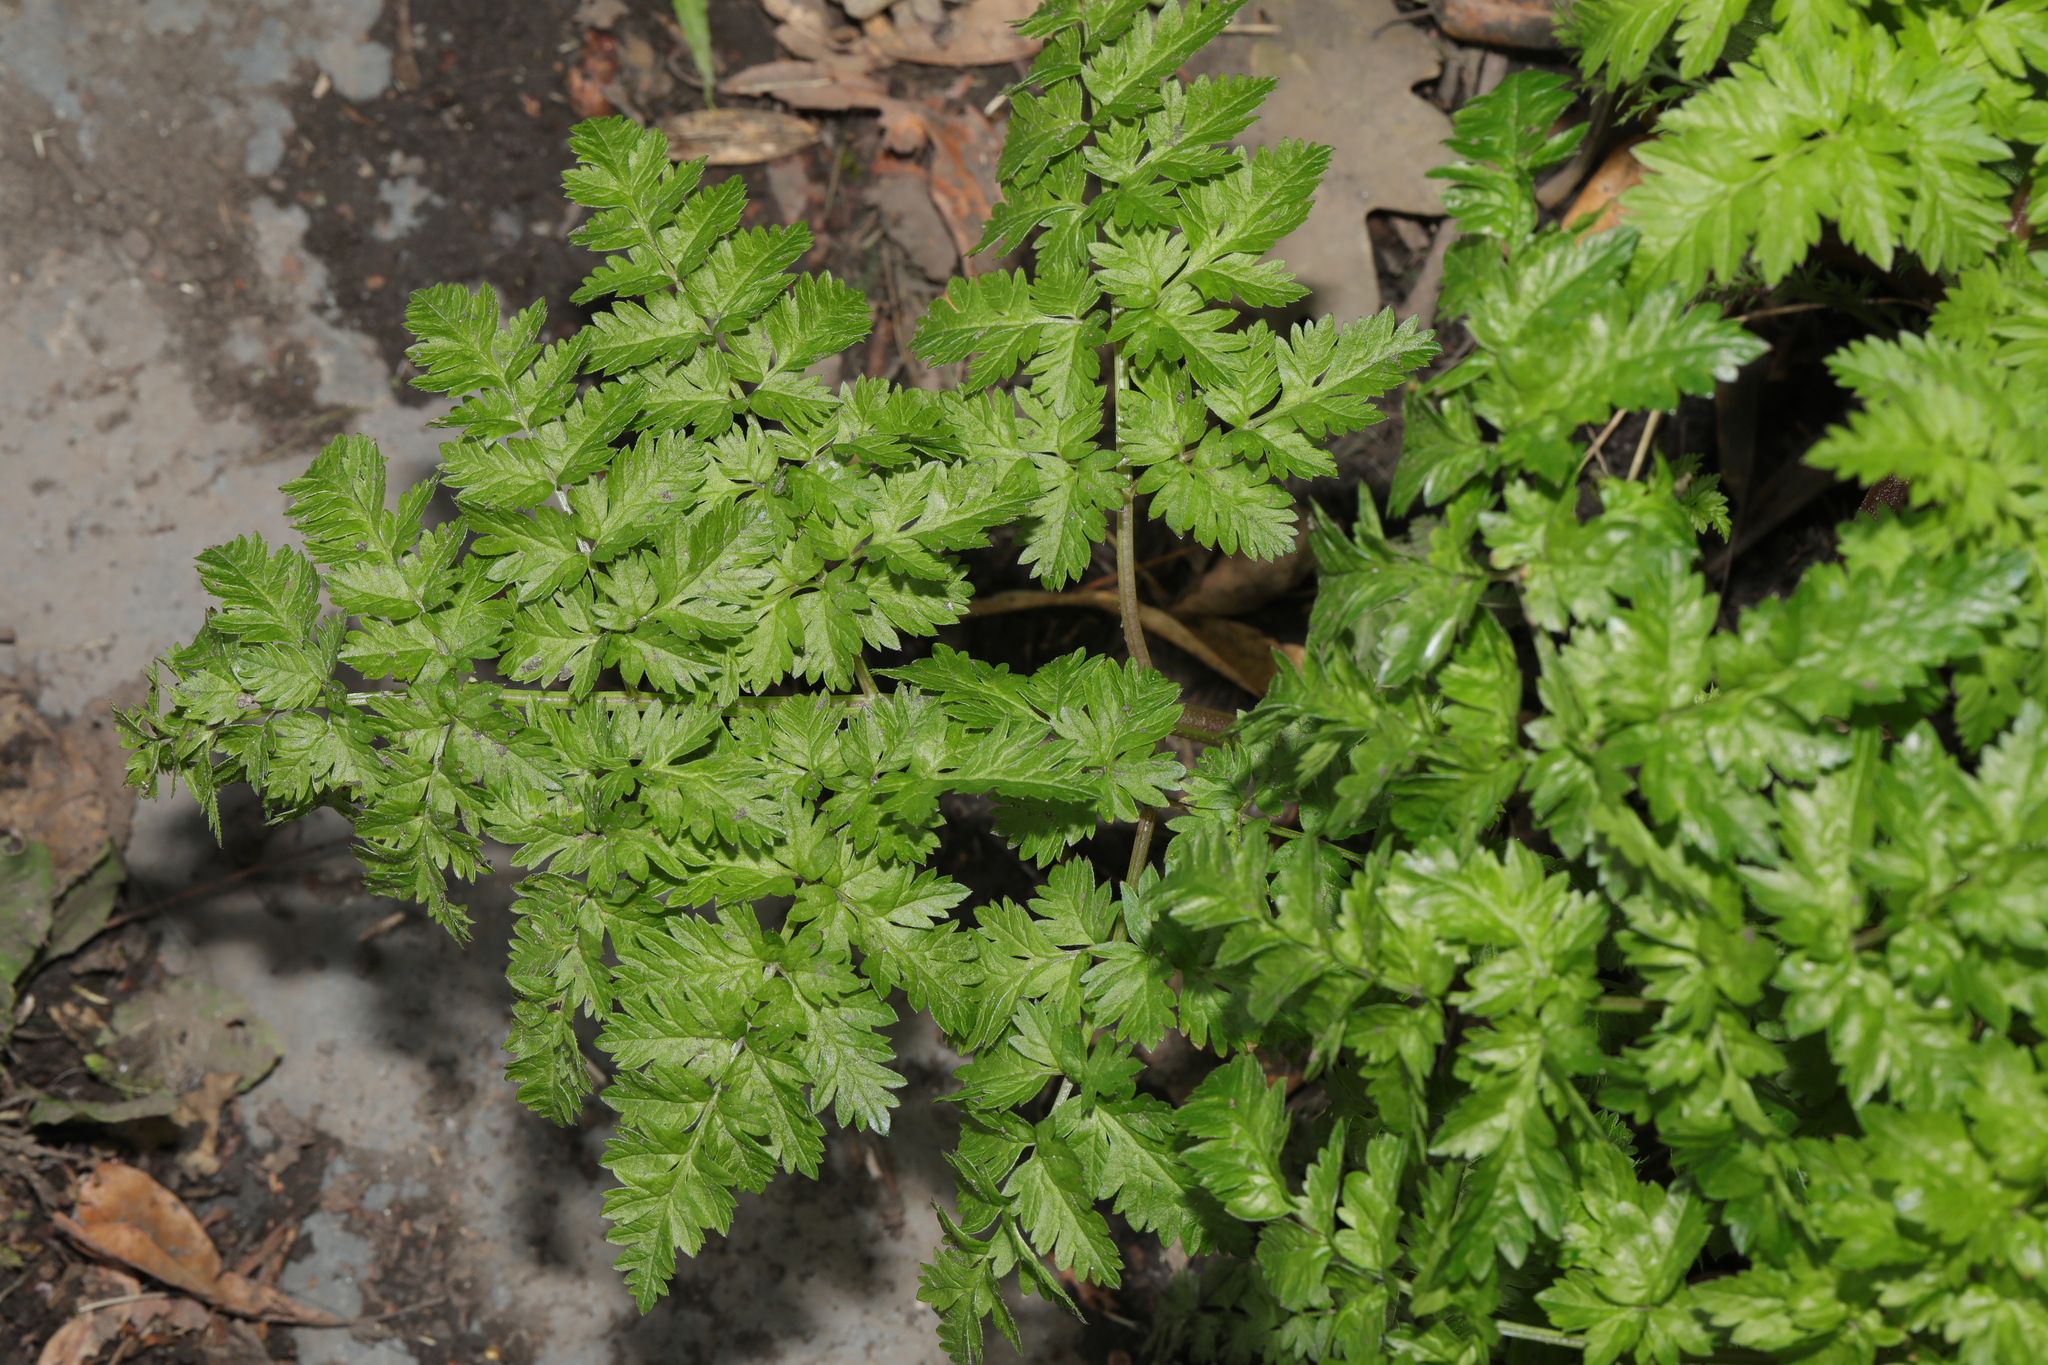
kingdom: Plantae
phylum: Tracheophyta
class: Magnoliopsida
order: Apiales
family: Apiaceae
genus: Anthriscus
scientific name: Anthriscus sylvestris
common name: Cow parsley
